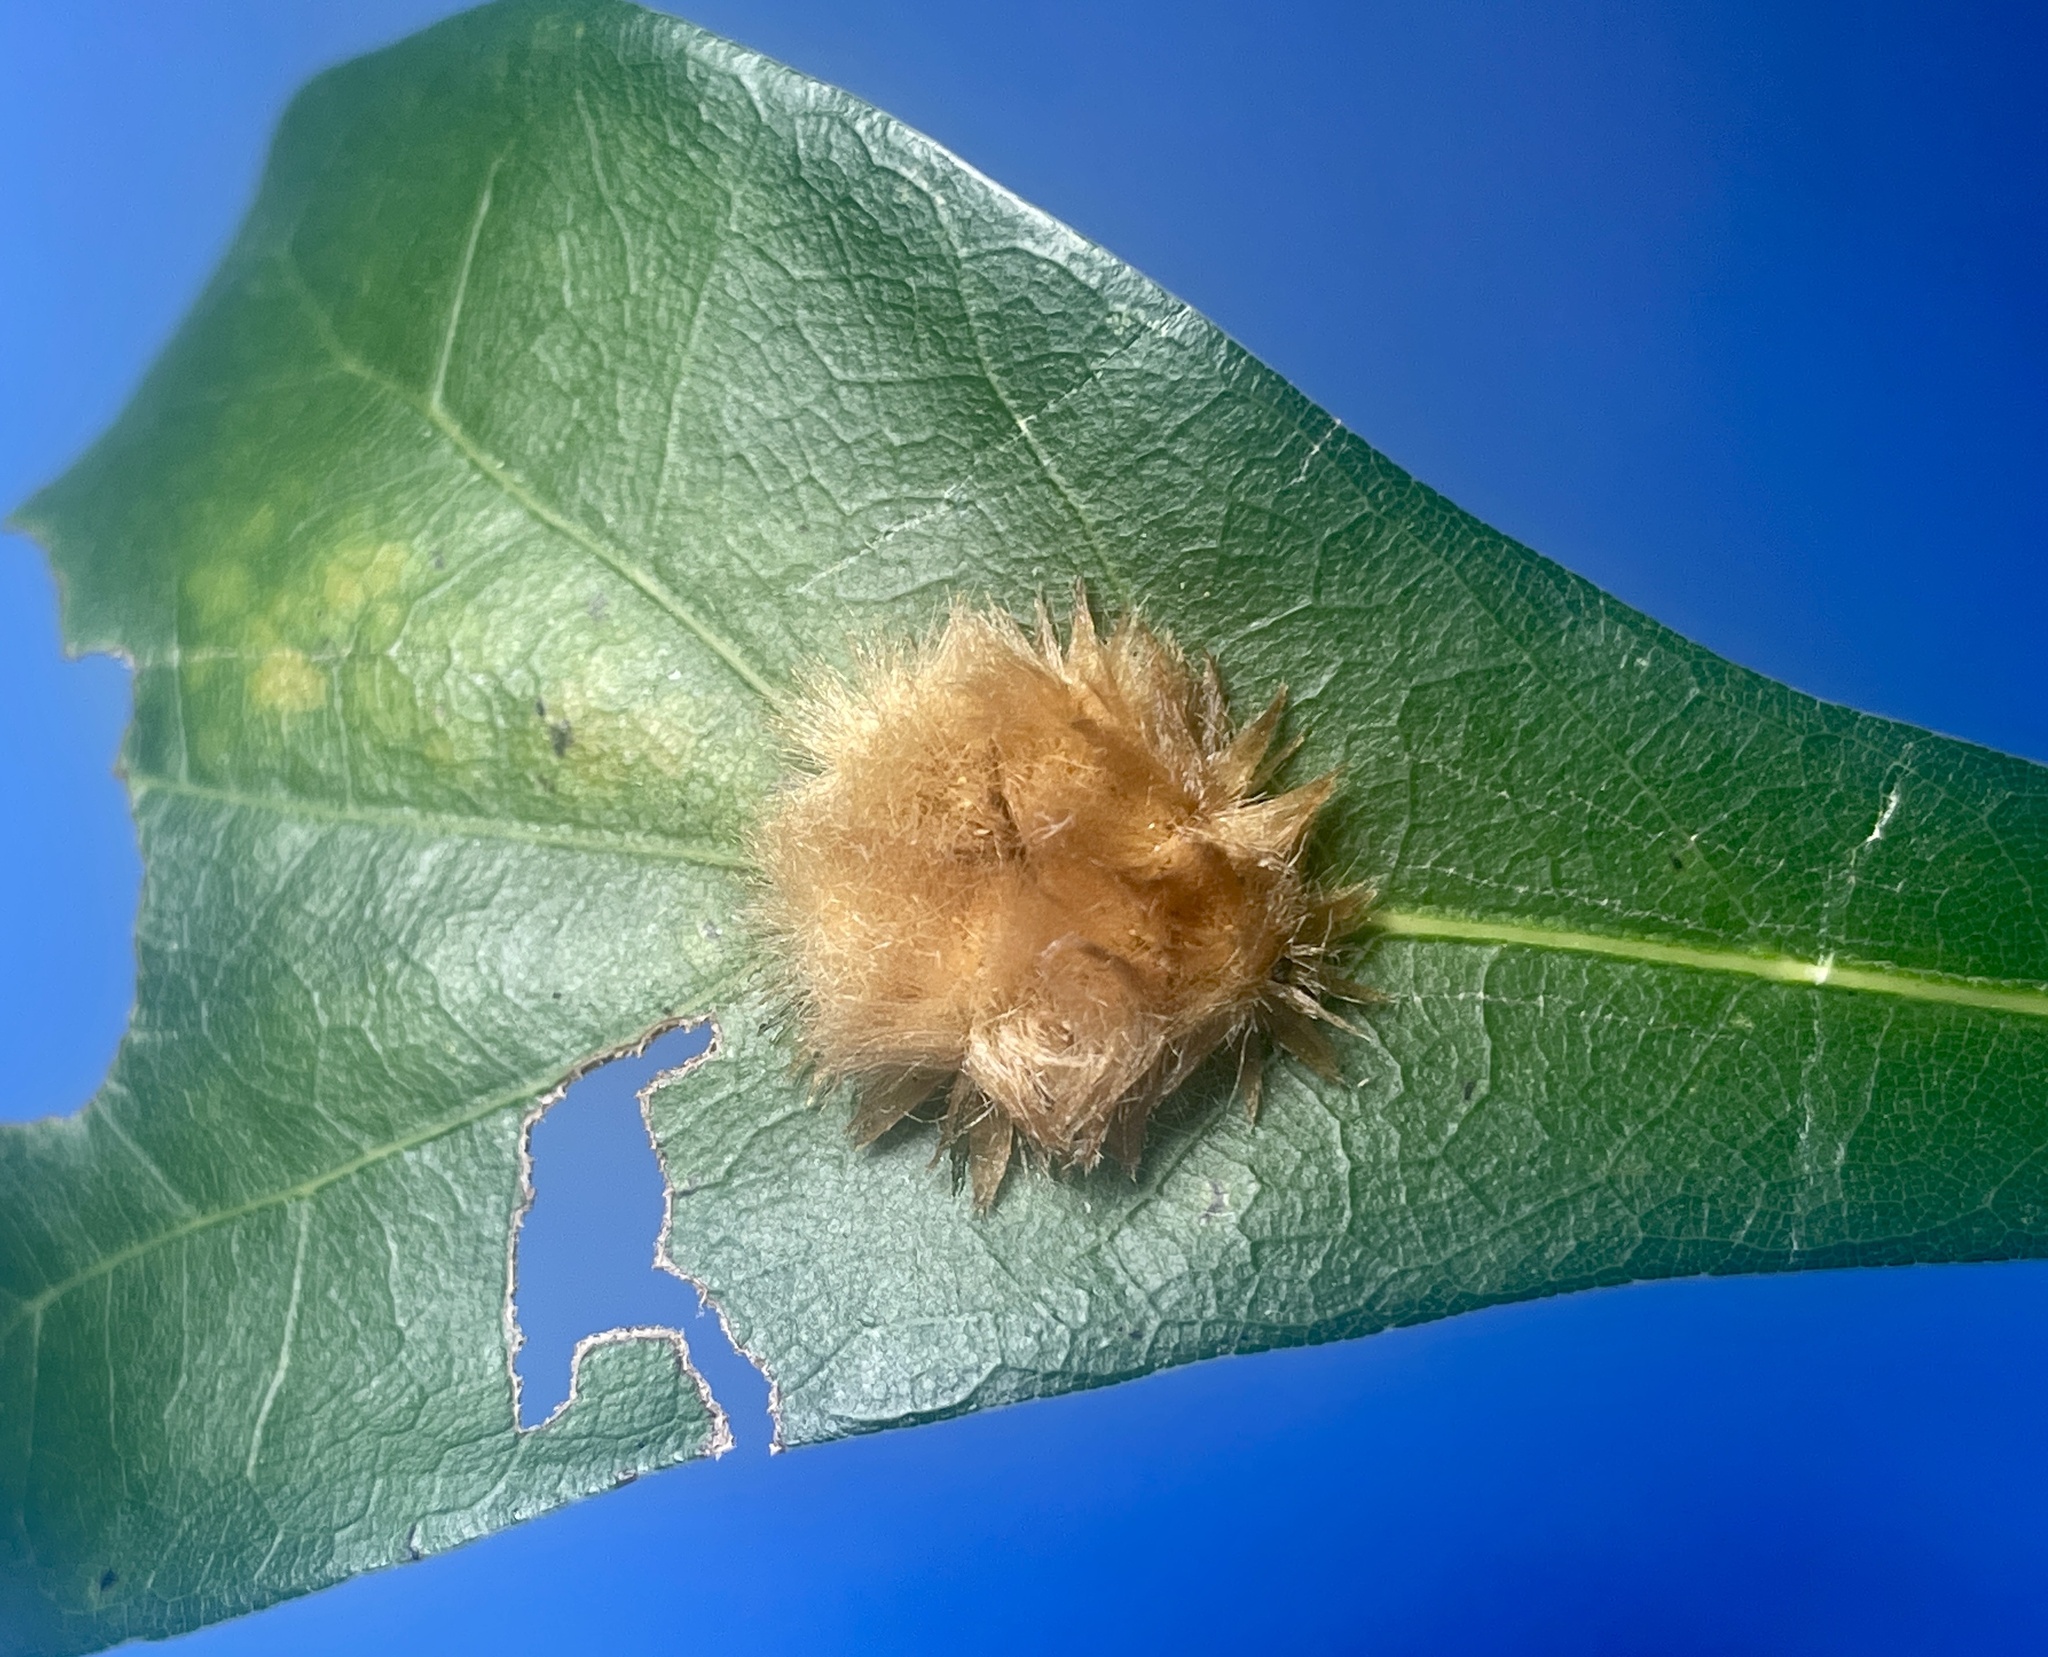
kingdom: Animalia
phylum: Arthropoda
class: Insecta
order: Hymenoptera
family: Cynipidae
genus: Callirhytis
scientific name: Callirhytis
